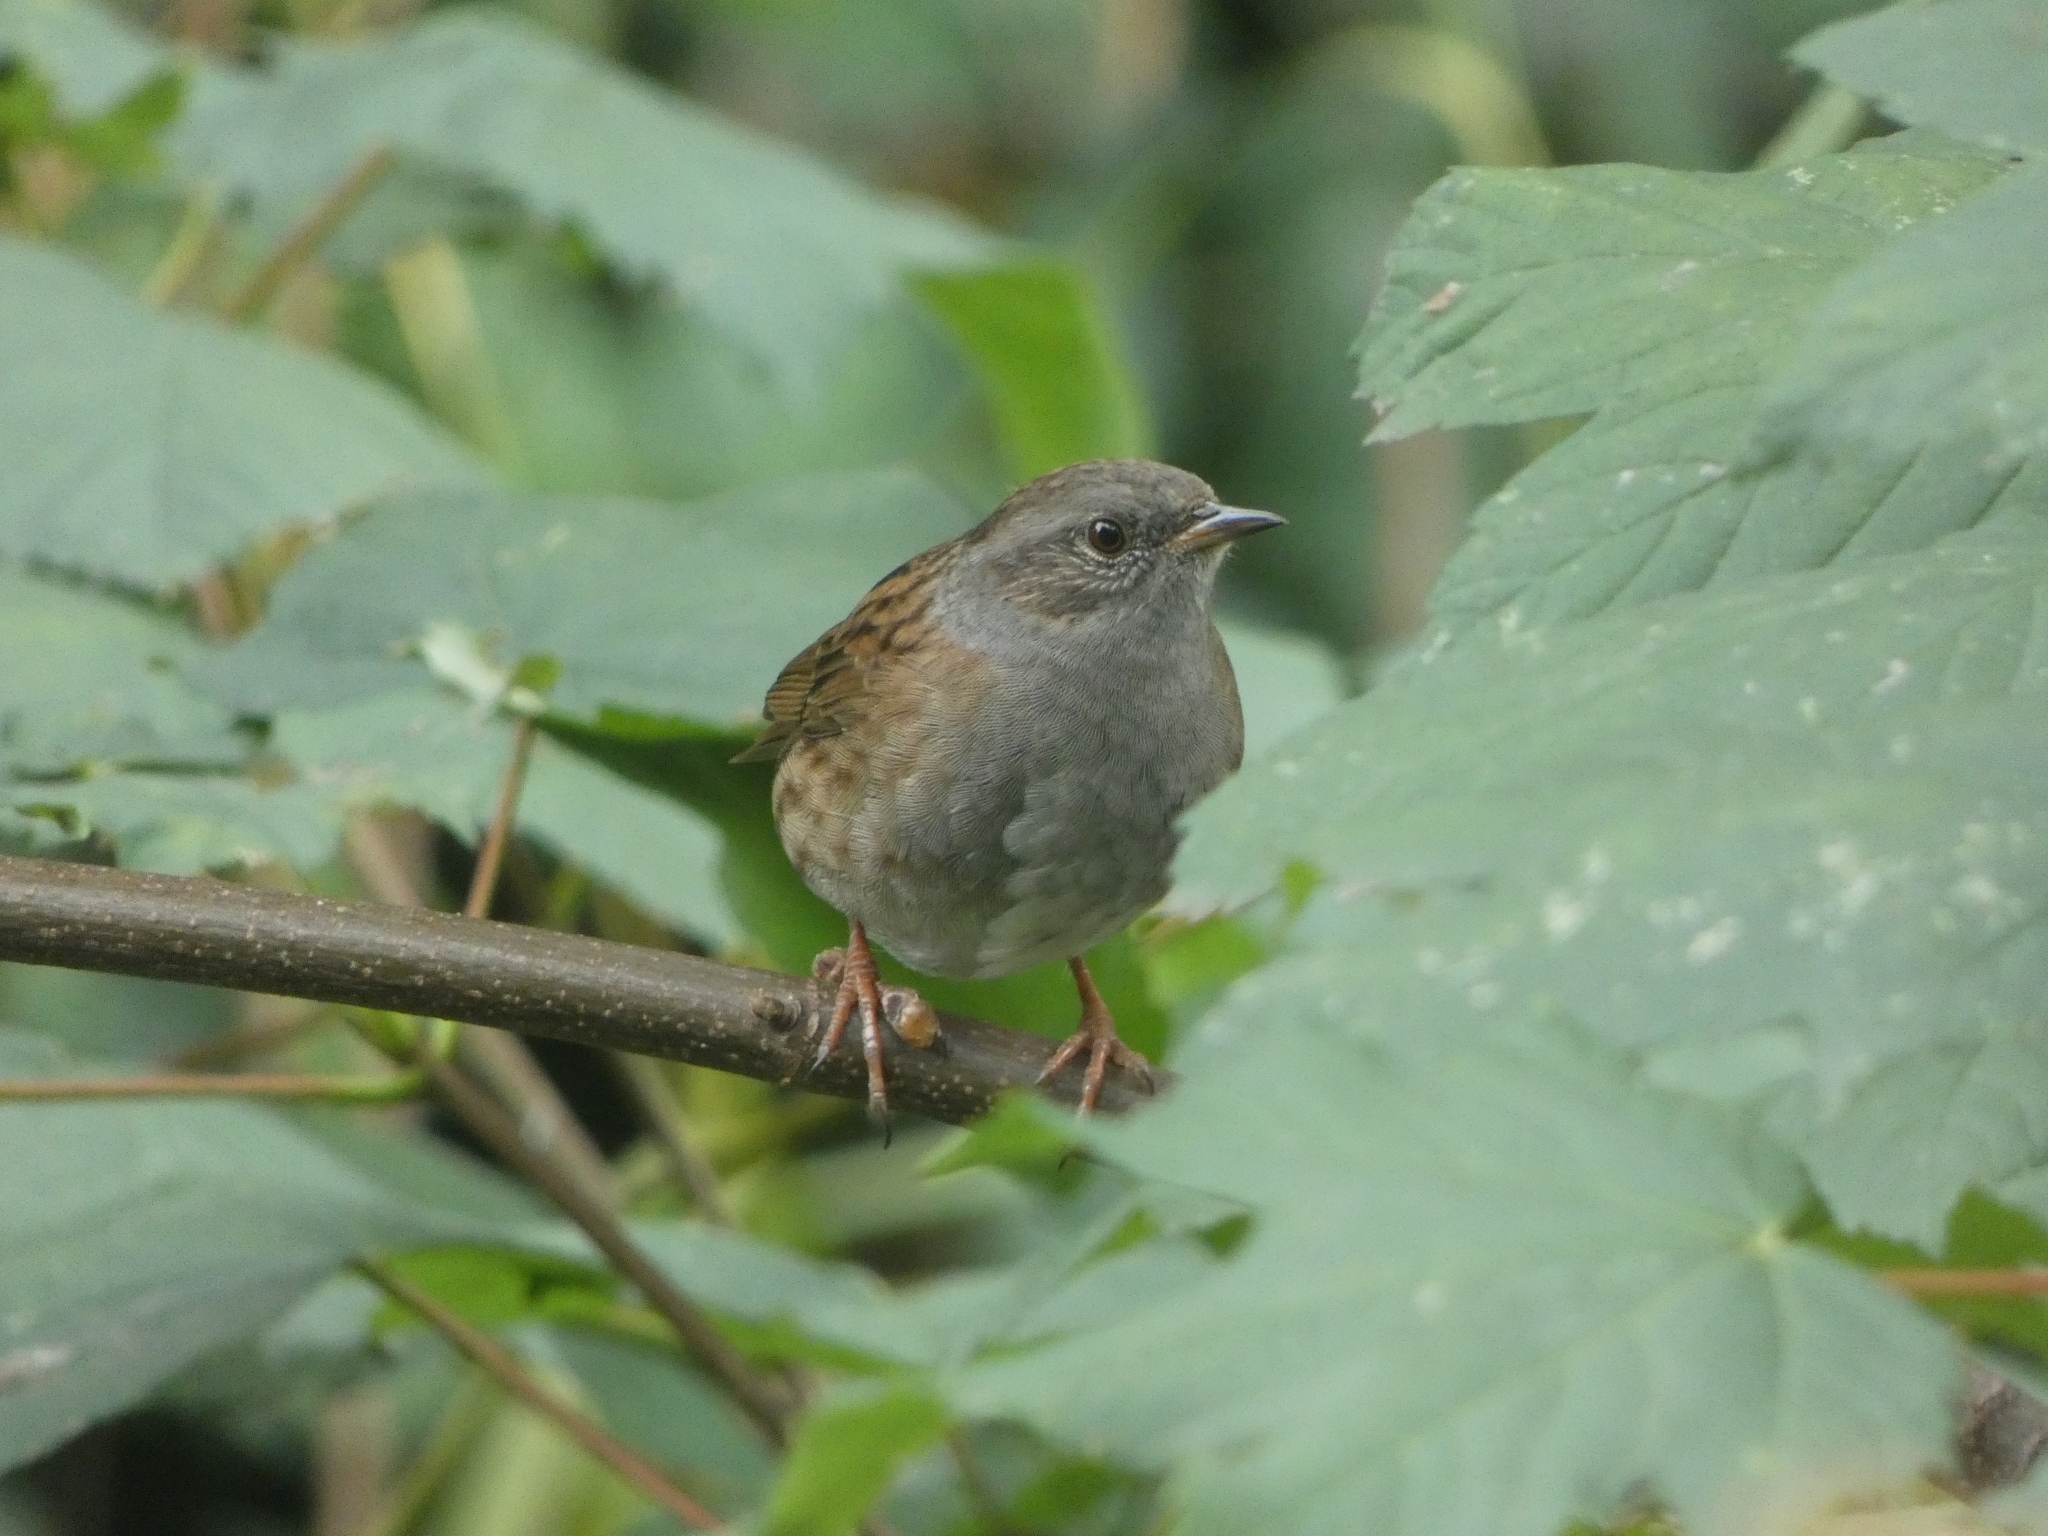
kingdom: Animalia
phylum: Chordata
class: Aves
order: Passeriformes
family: Prunellidae
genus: Prunella
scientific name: Prunella modularis
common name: Dunnock
